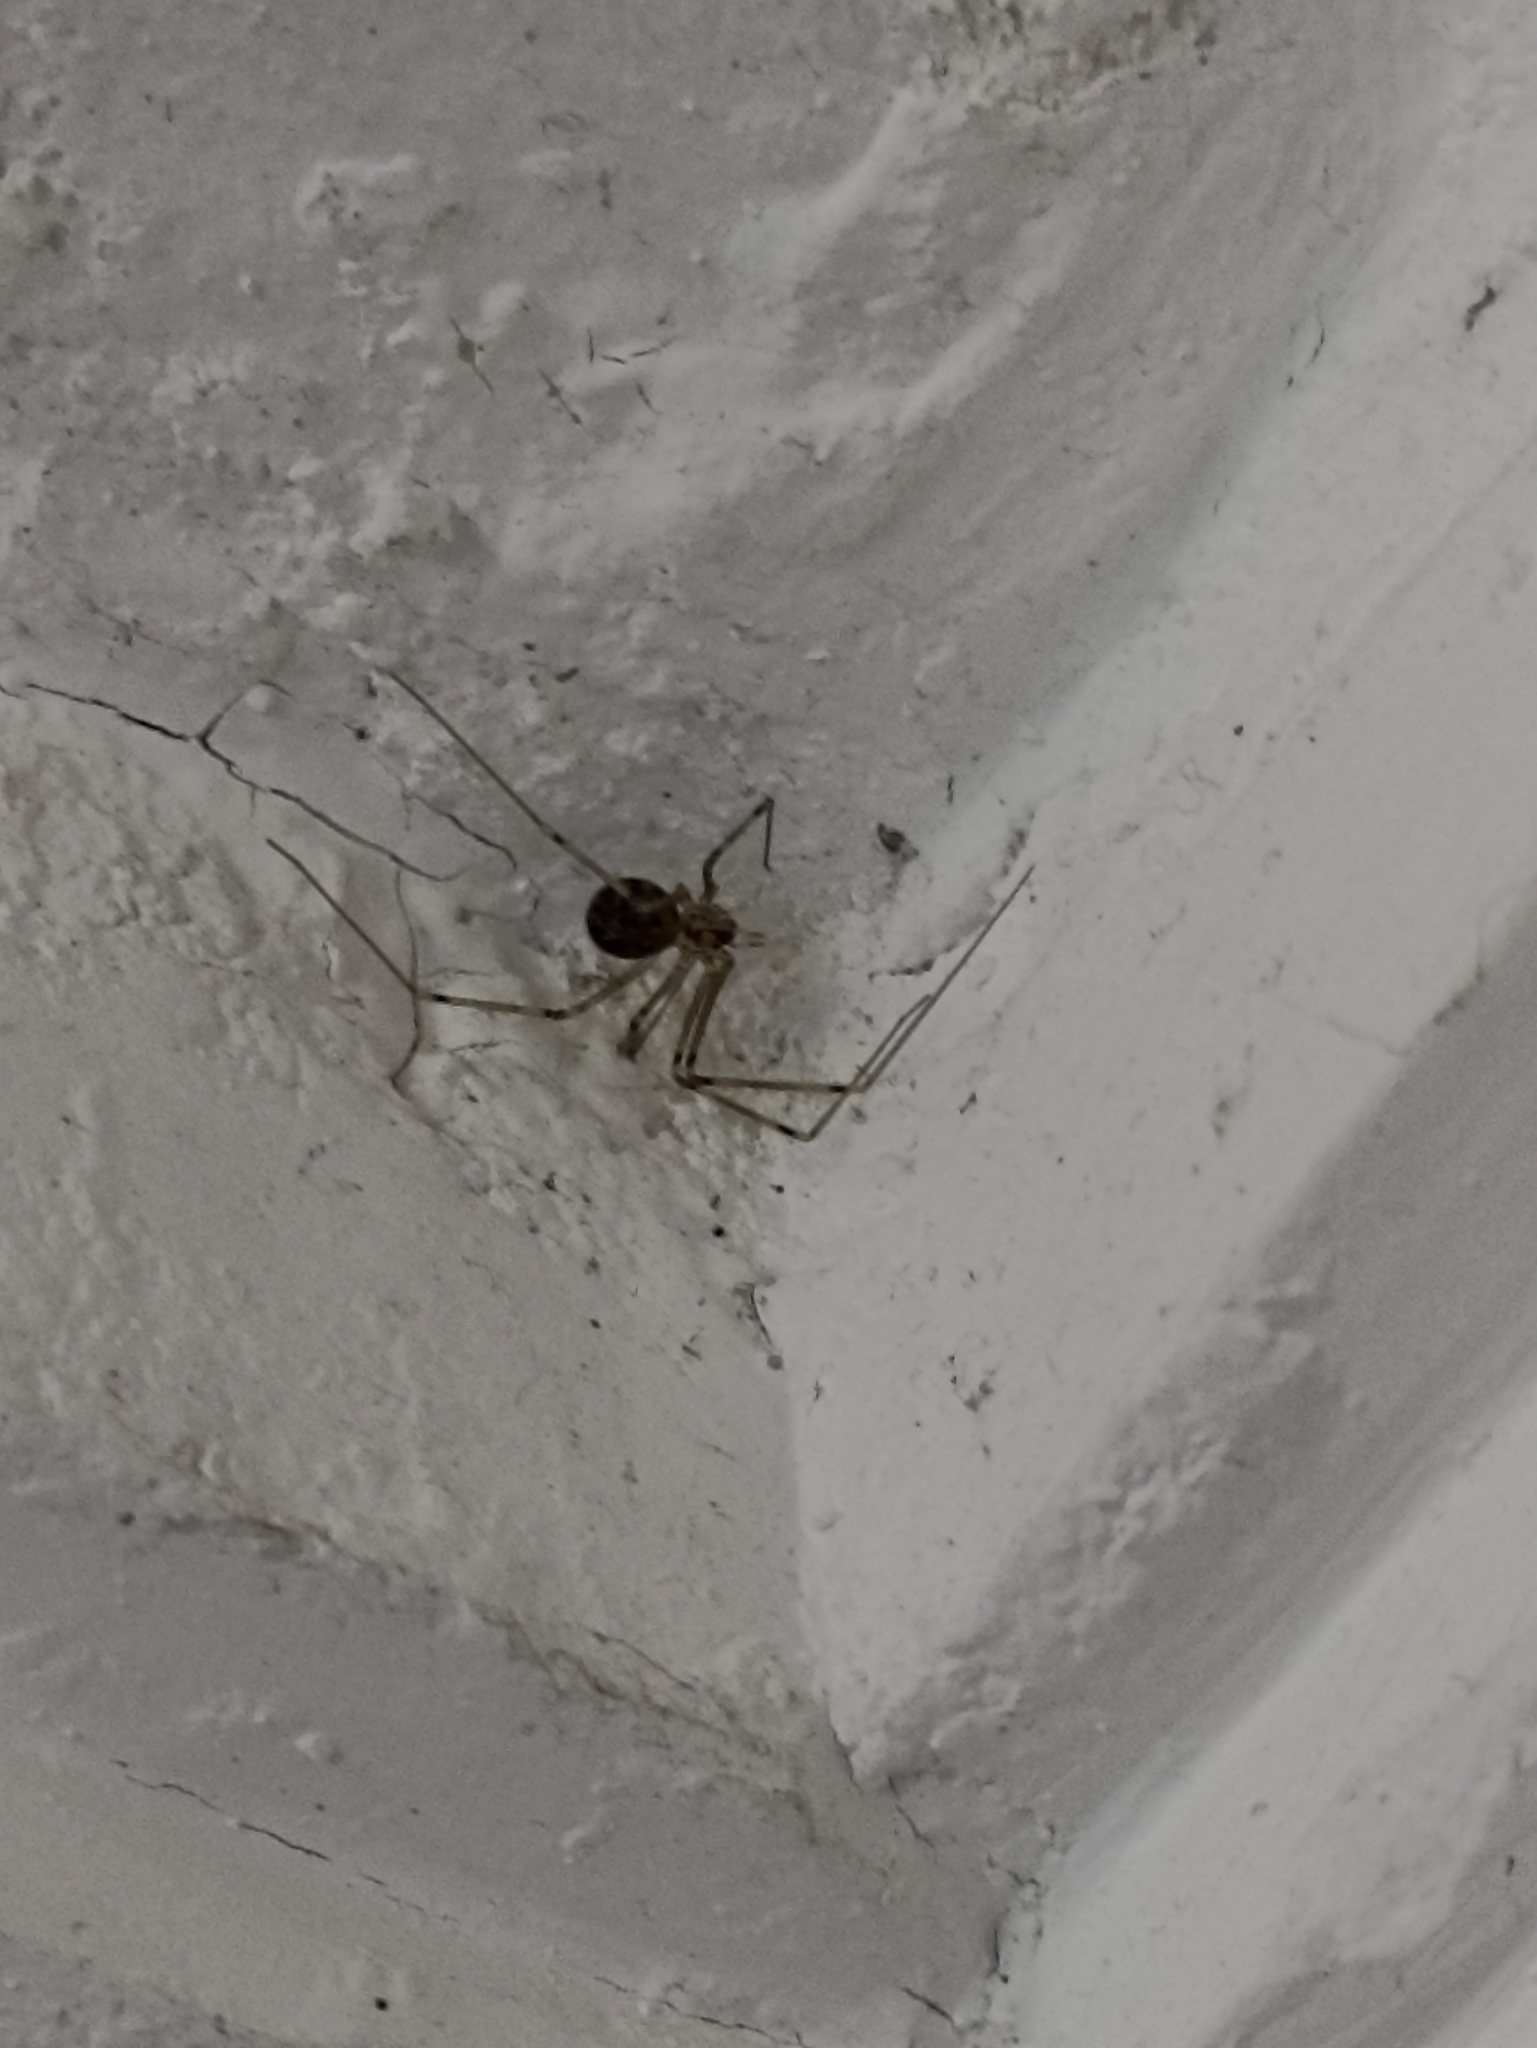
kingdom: Animalia
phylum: Arthropoda
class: Arachnida
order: Araneae
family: Pholcidae
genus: Physocyclus
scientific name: Physocyclus globosus
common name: Cellar spiders
